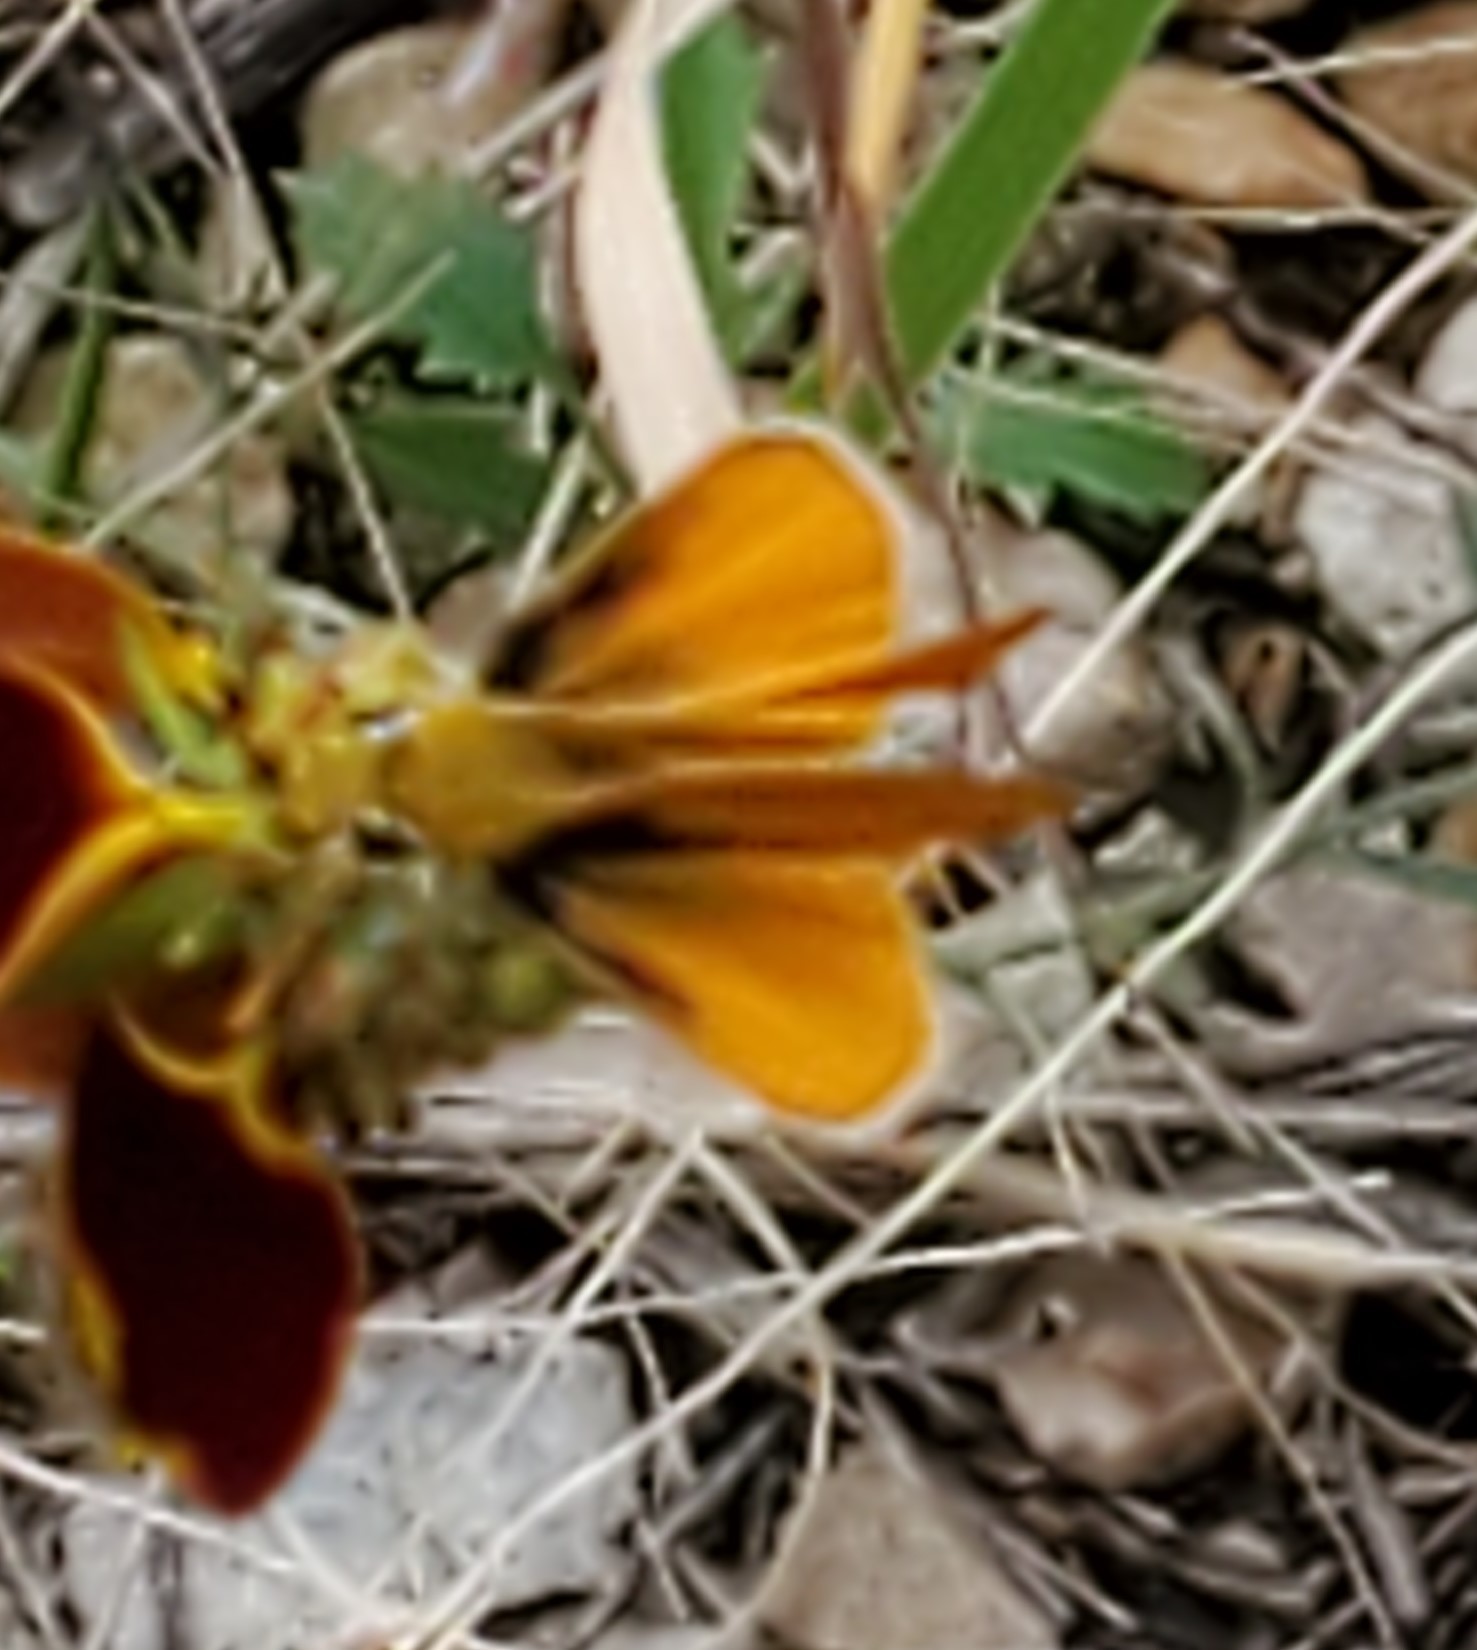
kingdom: Animalia
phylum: Arthropoda
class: Insecta
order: Lepidoptera
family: Hesperiidae
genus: Copaeodes
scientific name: Copaeodes aurantiaca
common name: Orange skipperling
